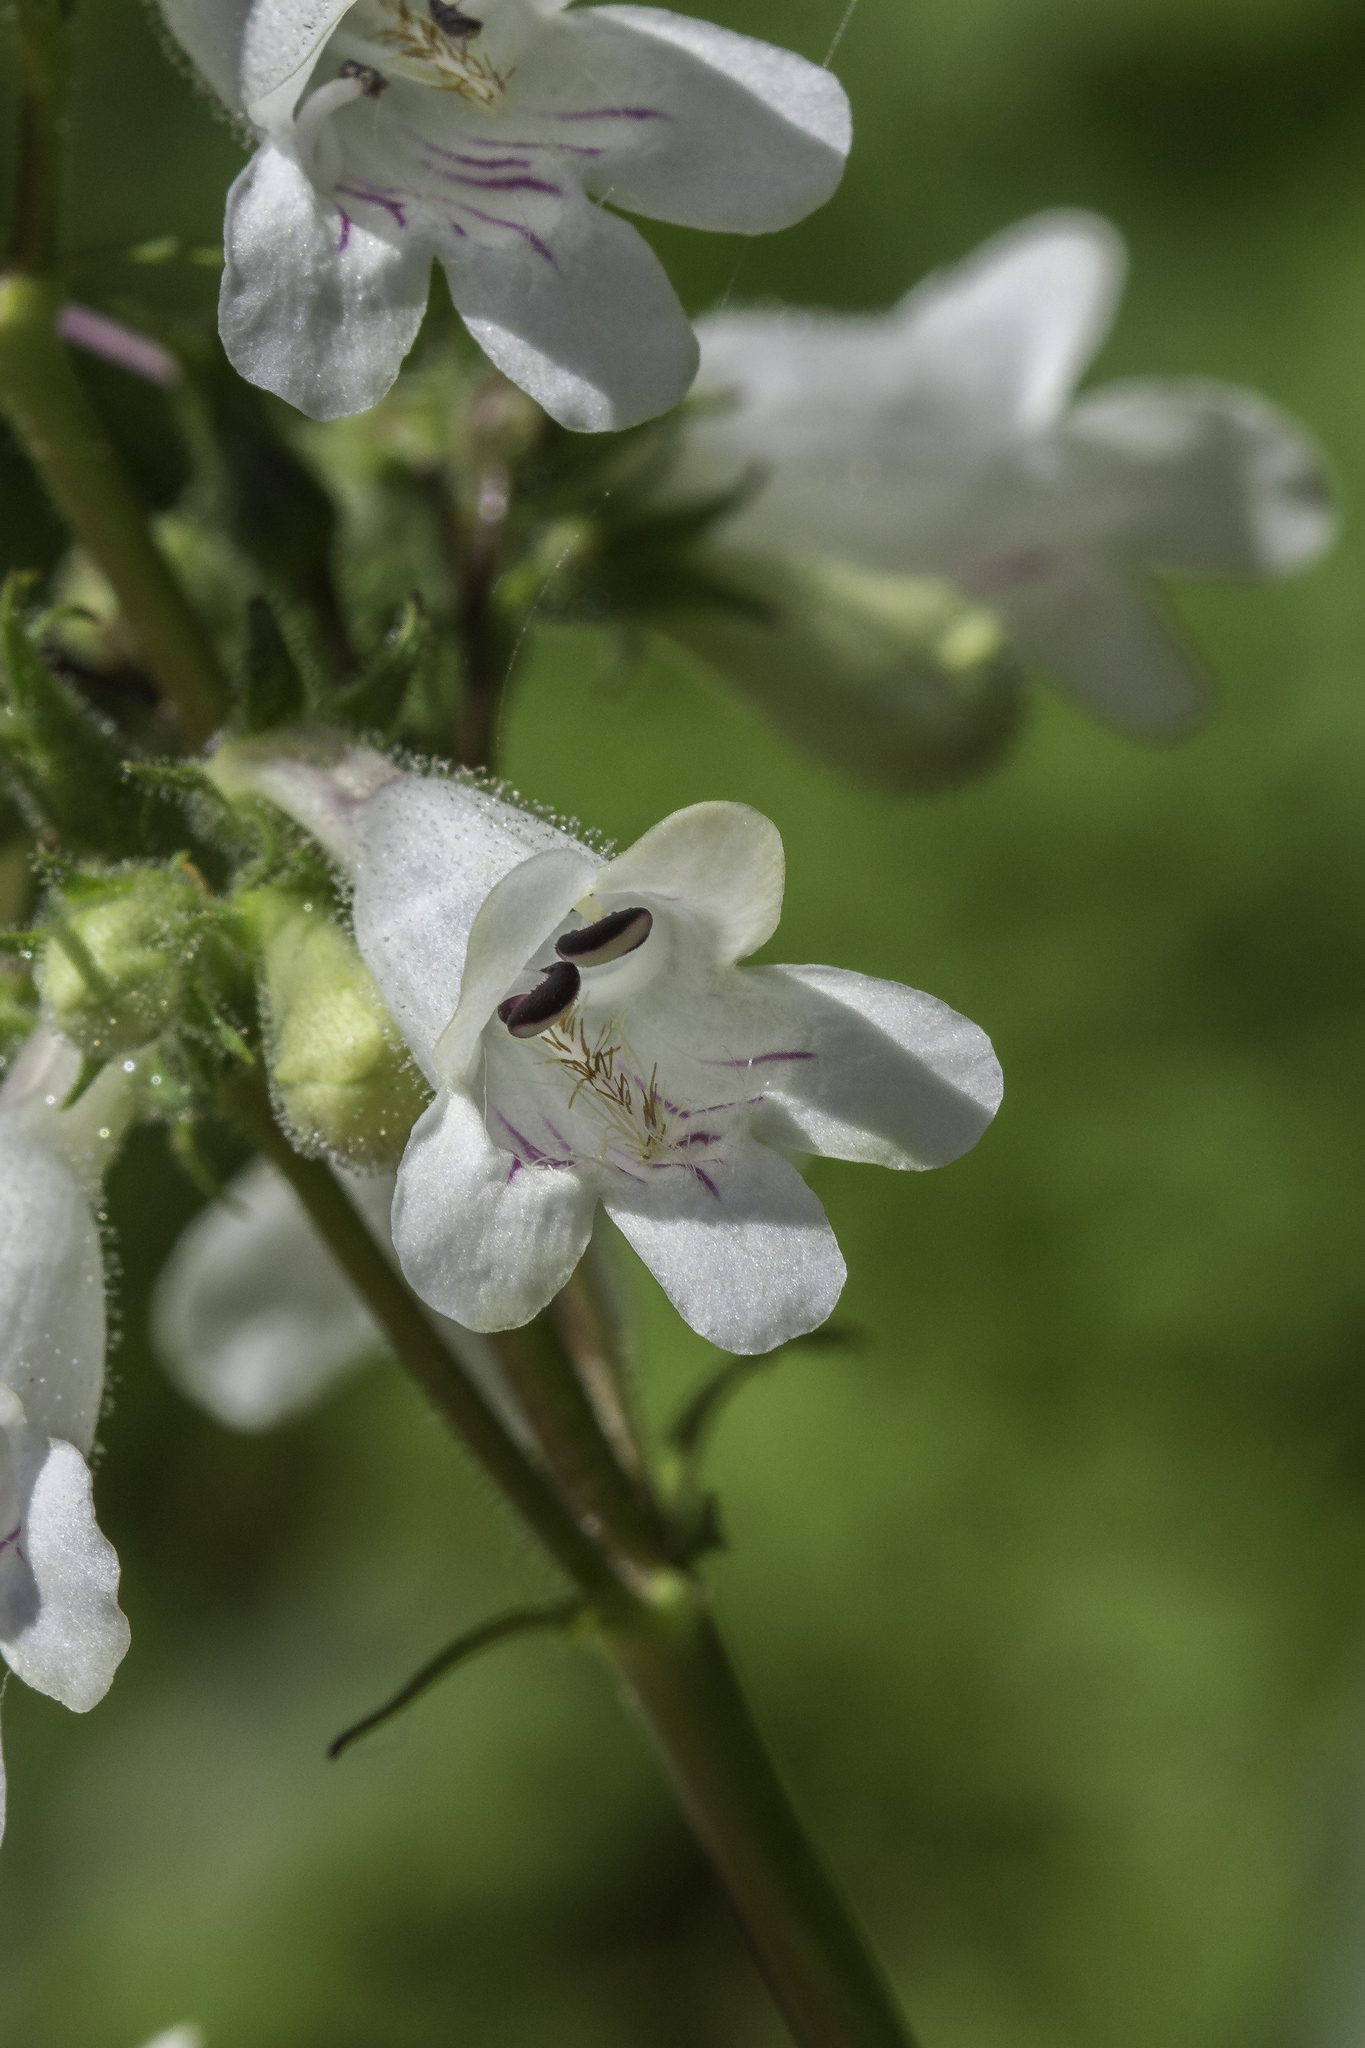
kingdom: Plantae
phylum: Tracheophyta
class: Magnoliopsida
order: Lamiales
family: Plantaginaceae
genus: Penstemon
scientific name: Penstemon digitalis
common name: Foxglove beardtongue
